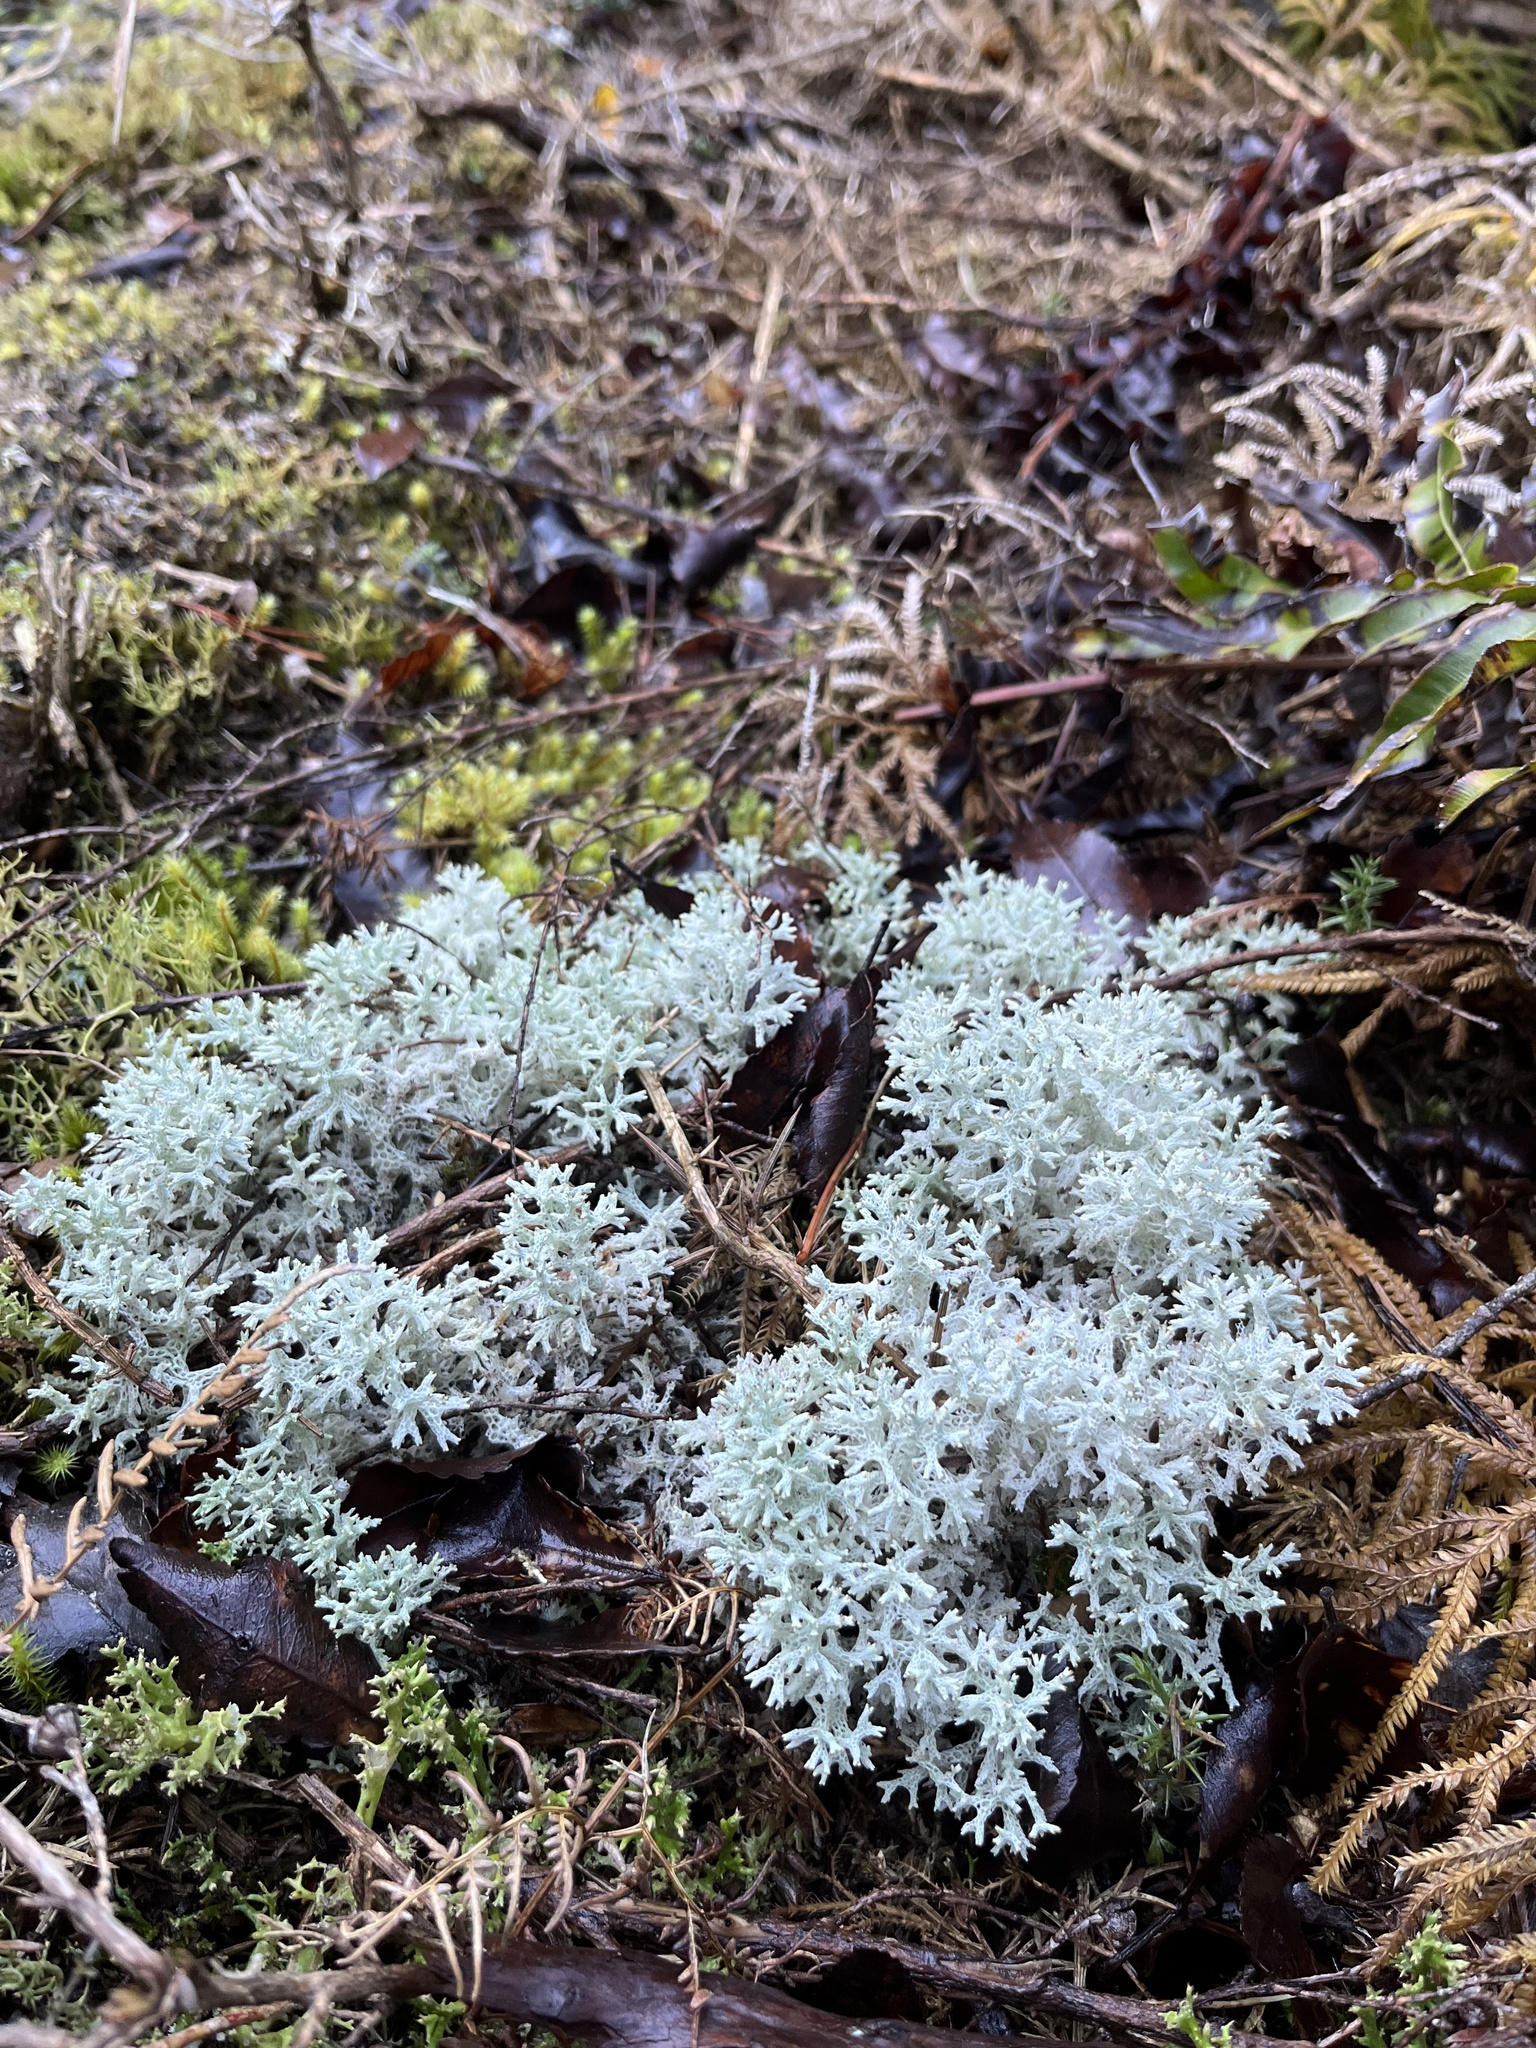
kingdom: Fungi
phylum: Ascomycota
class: Lecanoromycetes
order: Lecanorales
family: Cladoniaceae
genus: Pulchrocladia
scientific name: Pulchrocladia retipora
